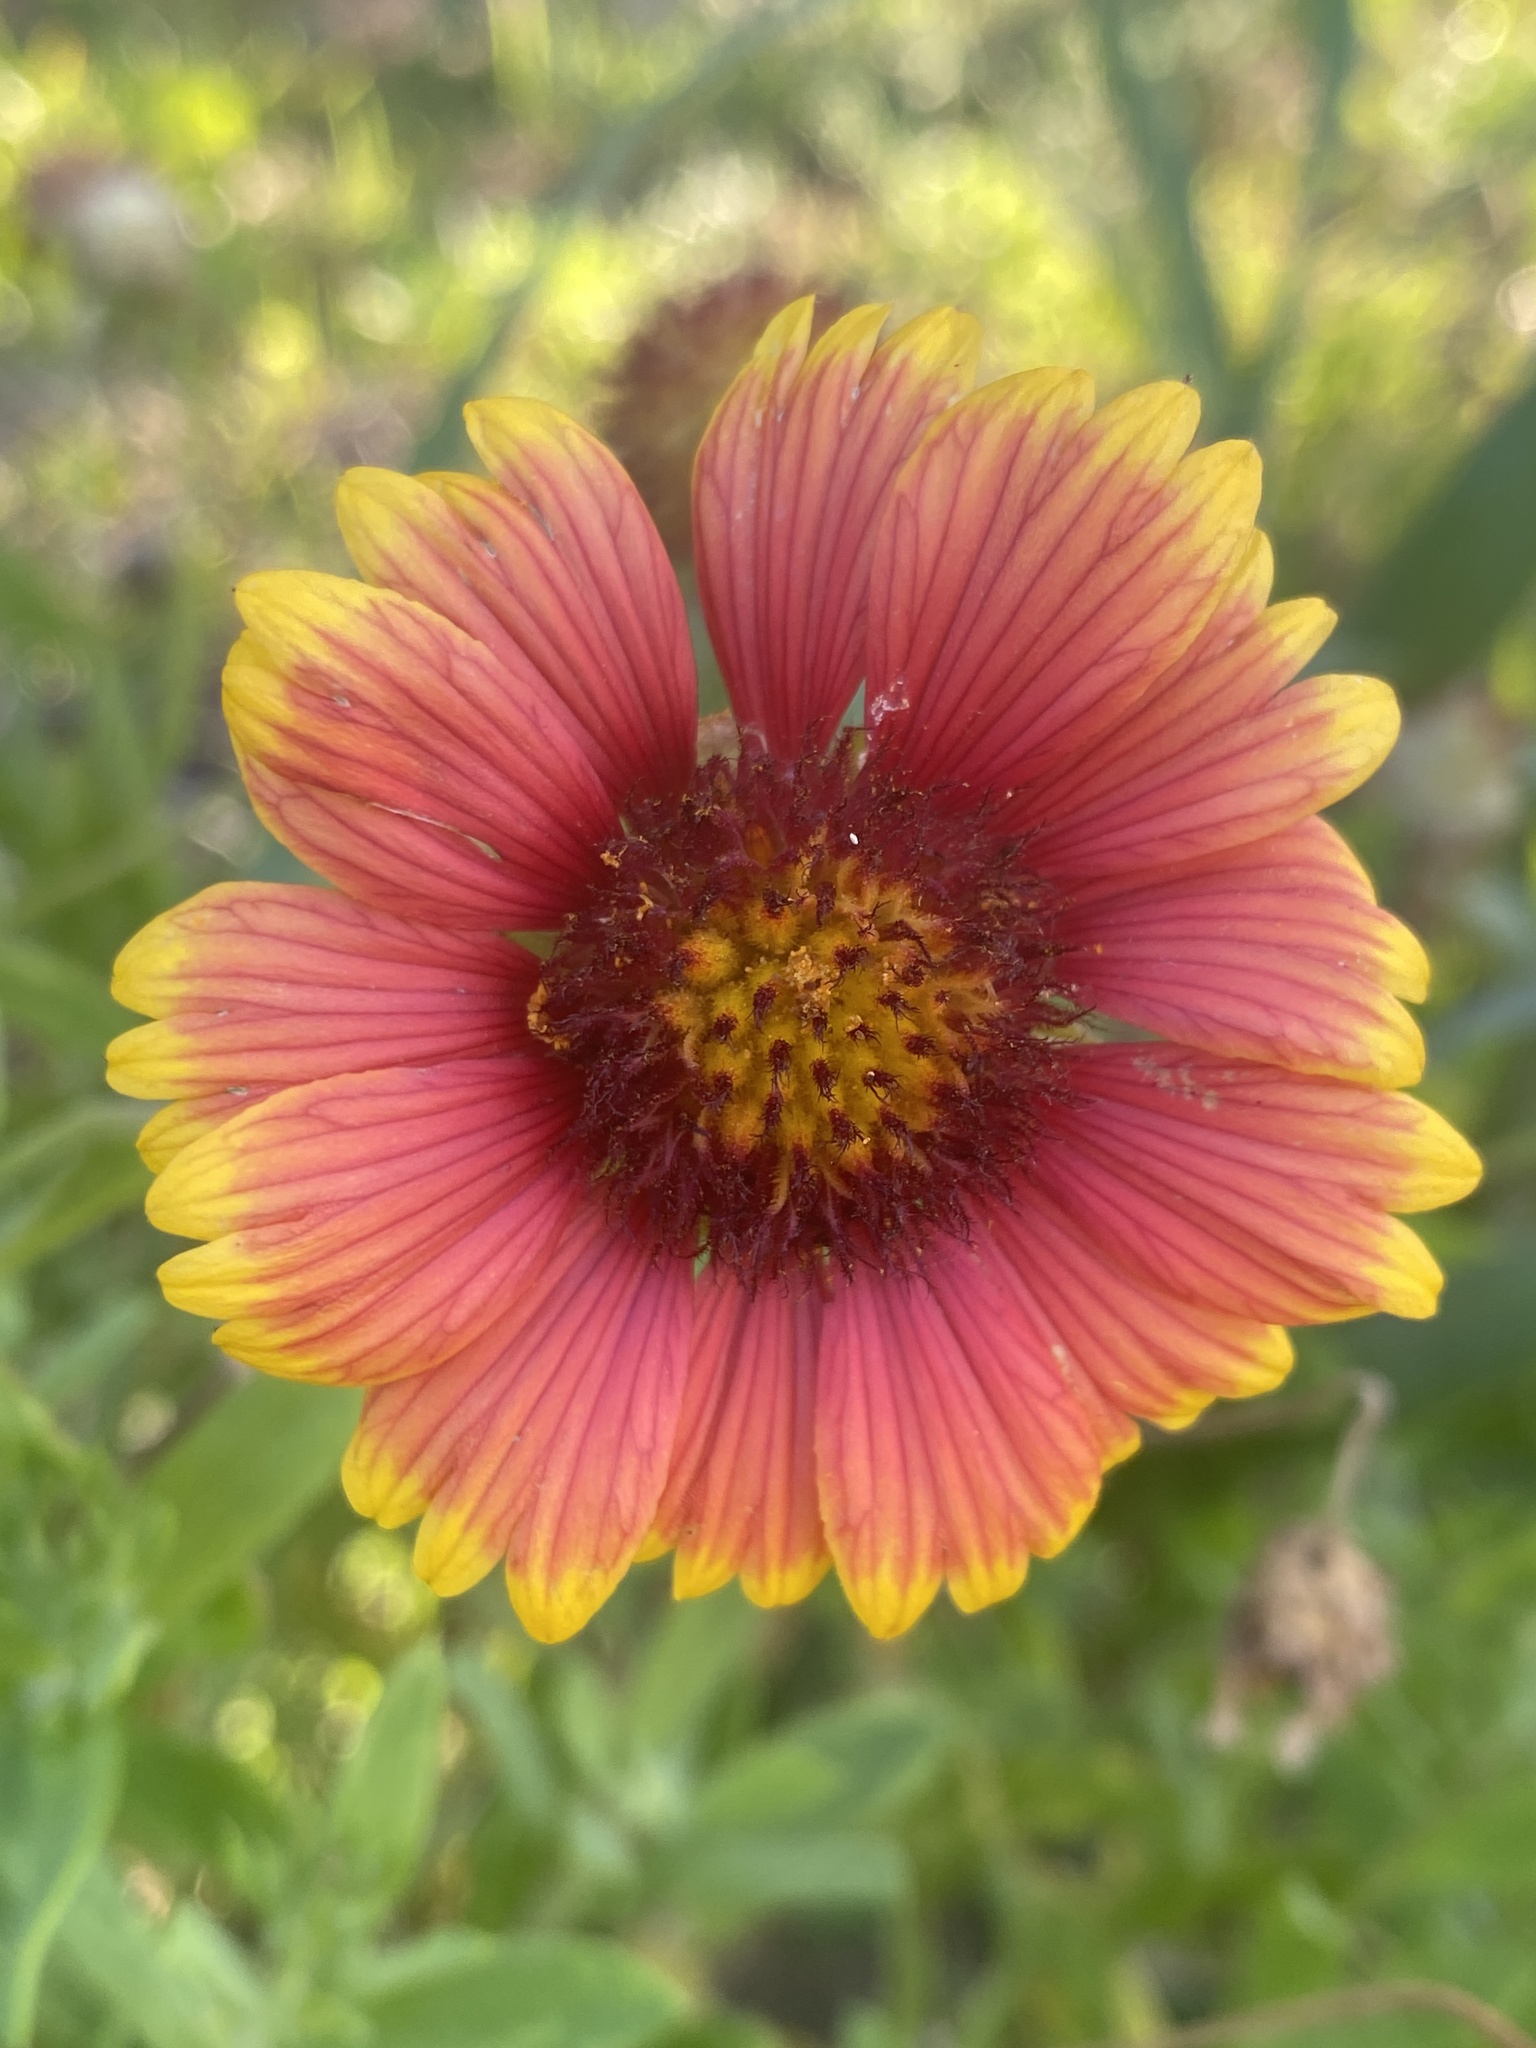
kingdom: Plantae
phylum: Tracheophyta
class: Magnoliopsida
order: Asterales
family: Asteraceae
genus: Gaillardia
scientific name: Gaillardia pulchella
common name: Firewheel
